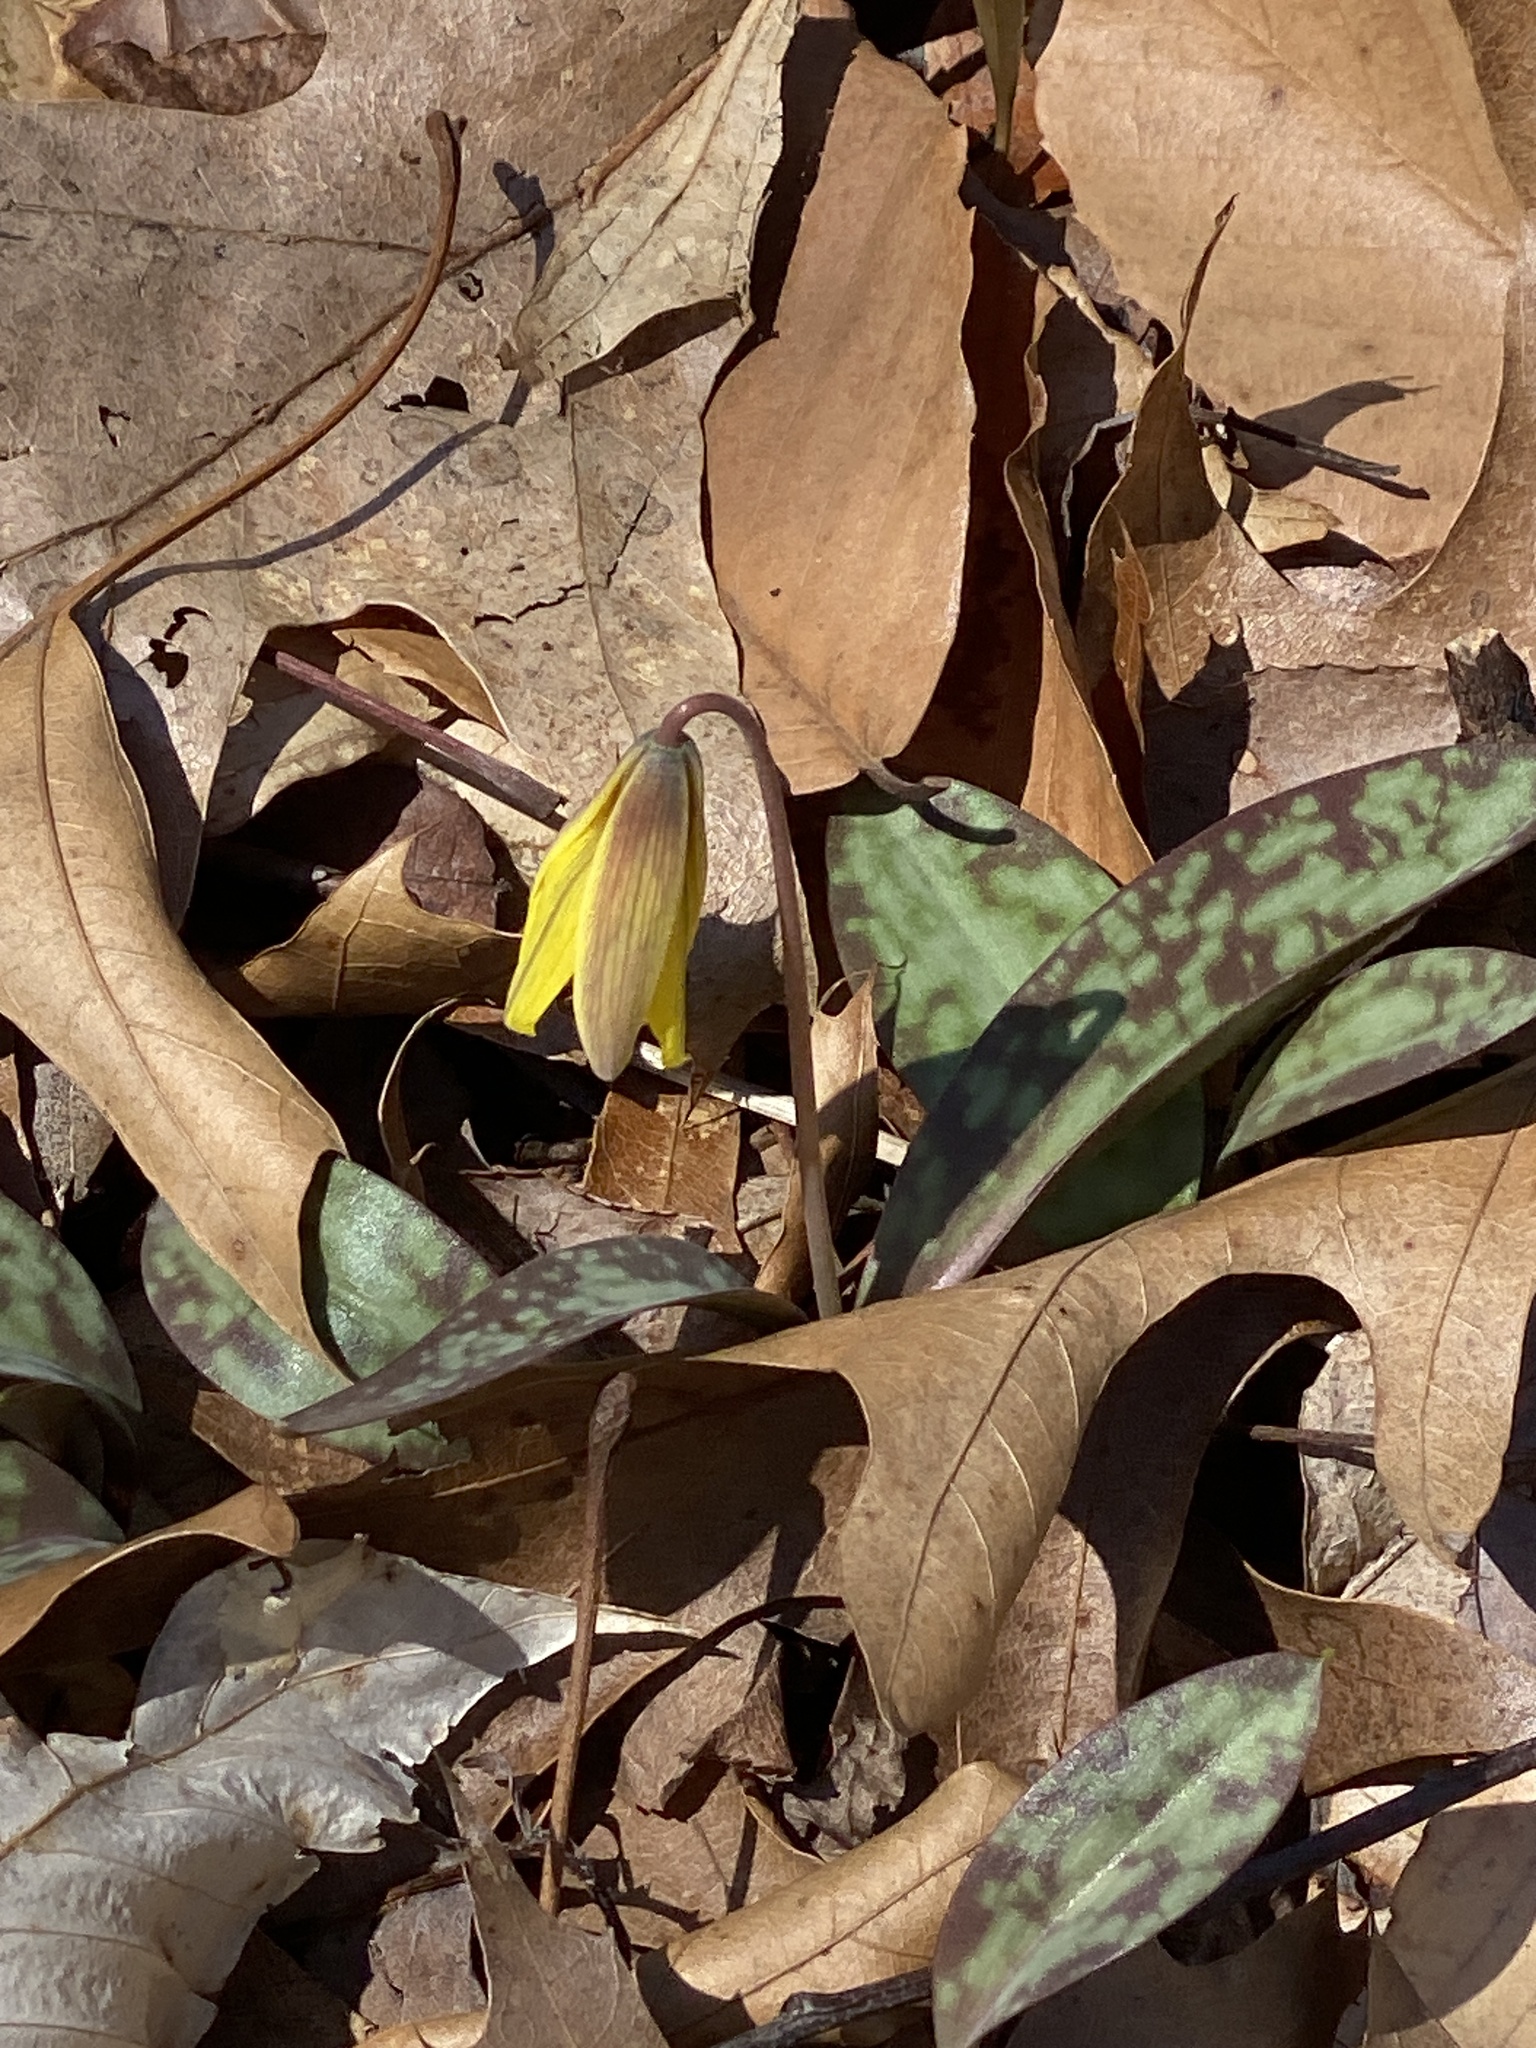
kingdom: Plantae
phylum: Tracheophyta
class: Liliopsida
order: Liliales
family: Liliaceae
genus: Erythronium
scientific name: Erythronium americanum
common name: Yellow adder's-tongue
